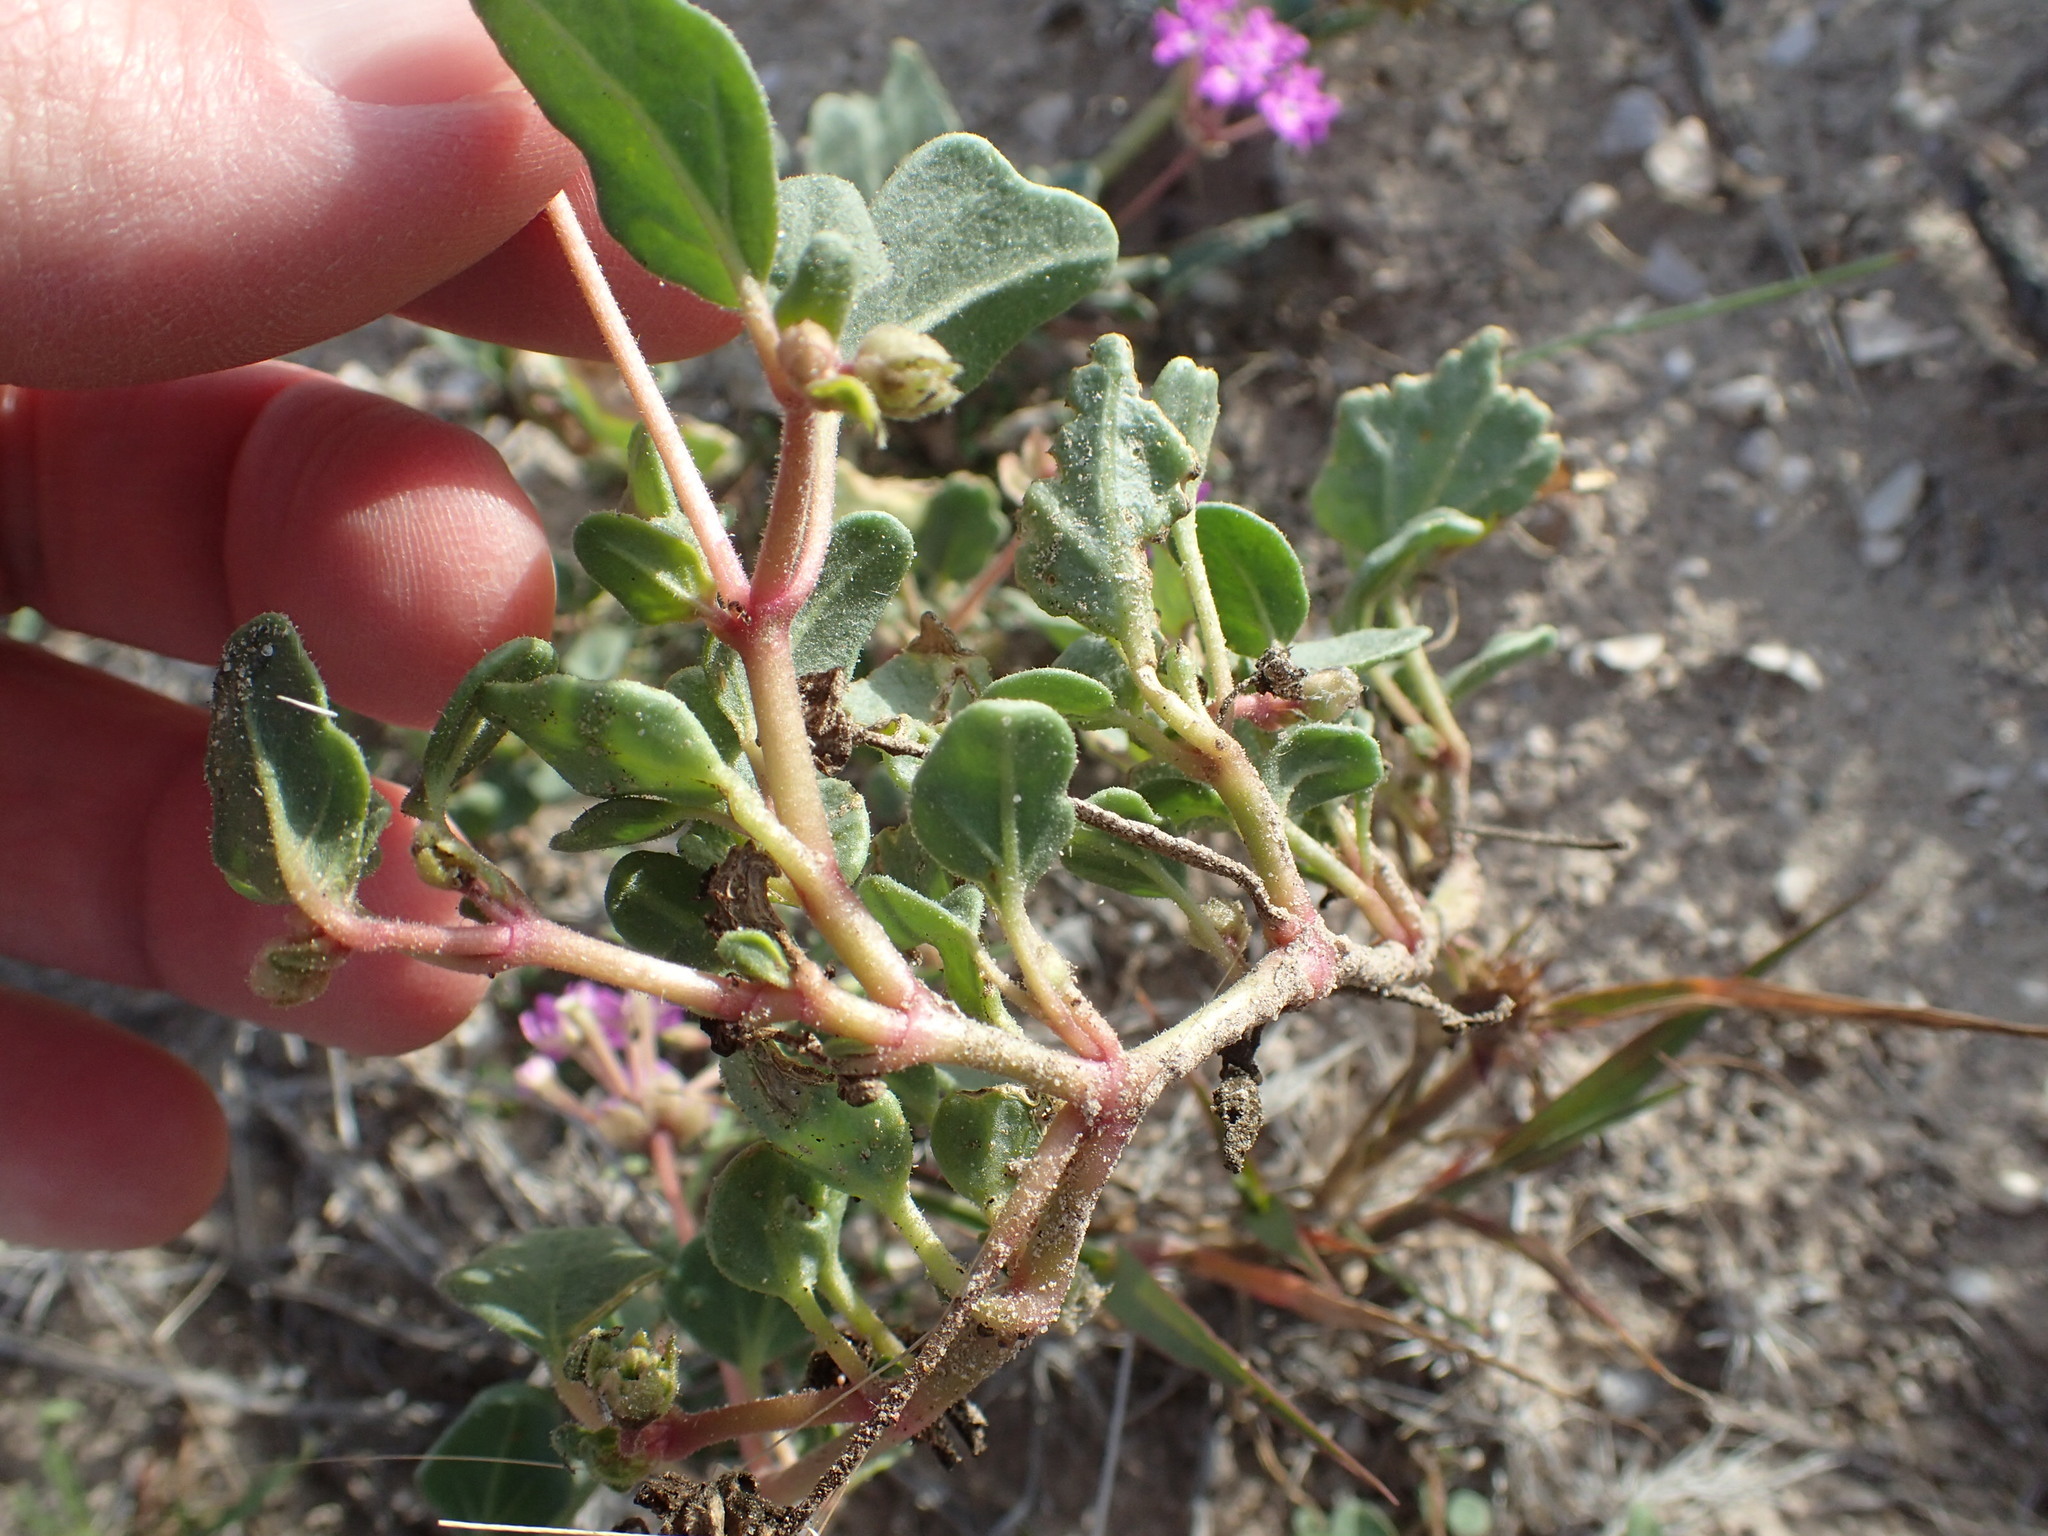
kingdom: Plantae
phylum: Tracheophyta
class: Magnoliopsida
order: Caryophyllales
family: Nyctaginaceae
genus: Abronia
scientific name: Abronia gracilis
